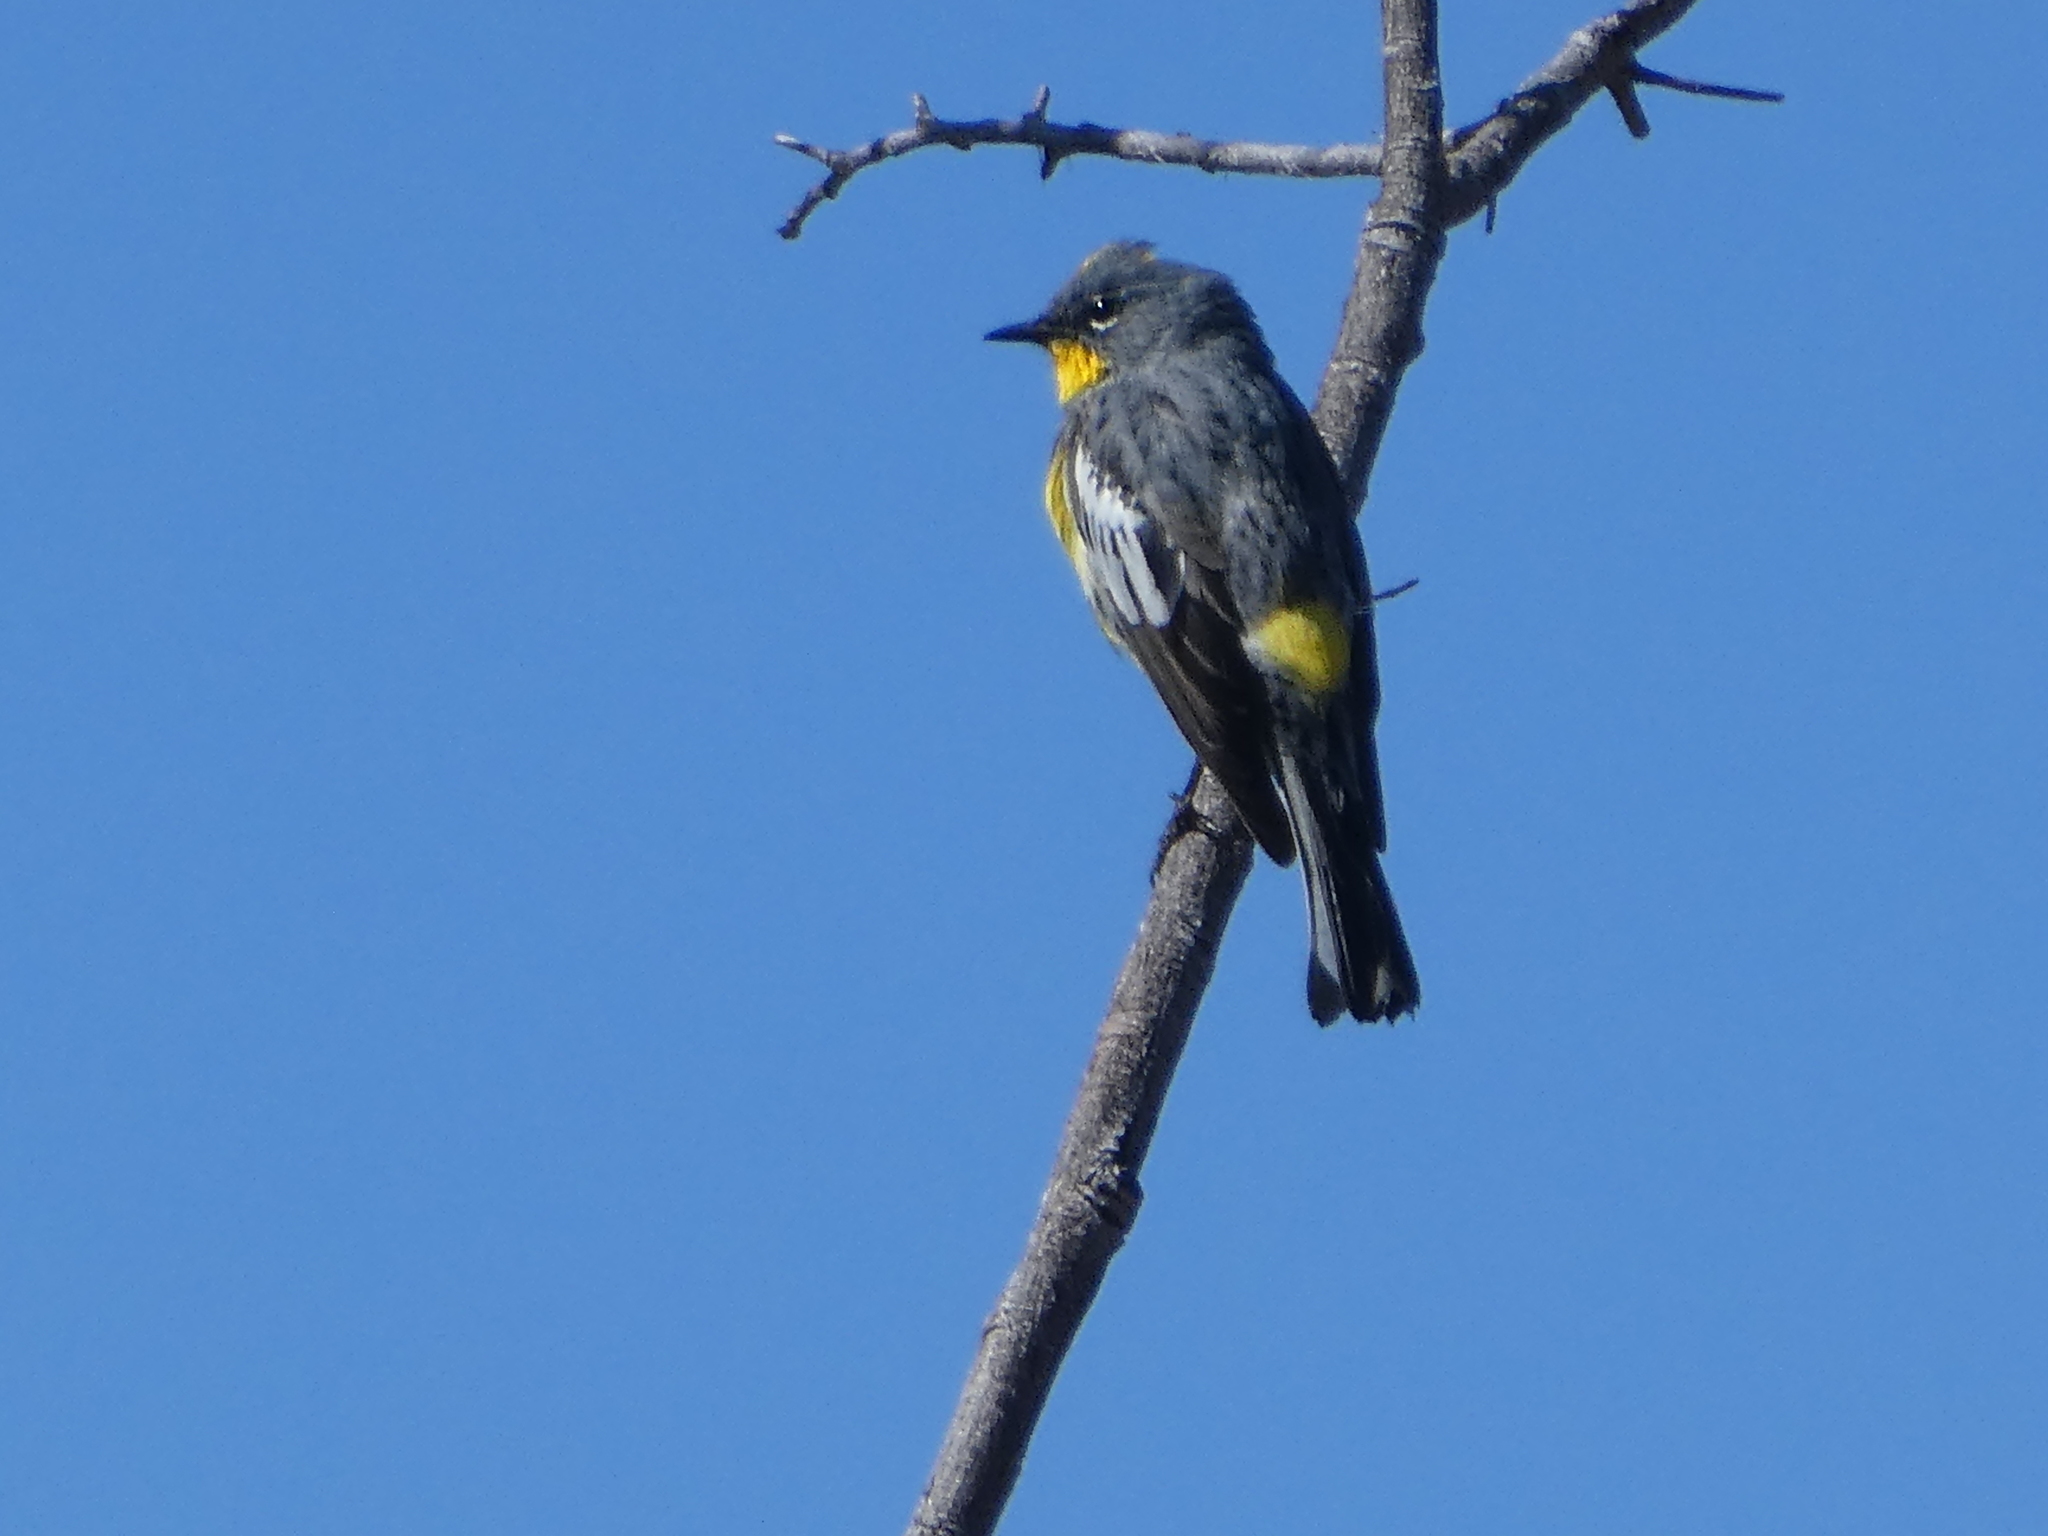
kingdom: Animalia
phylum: Chordata
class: Aves
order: Passeriformes
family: Parulidae
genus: Setophaga
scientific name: Setophaga auduboni
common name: Audubon's warbler
